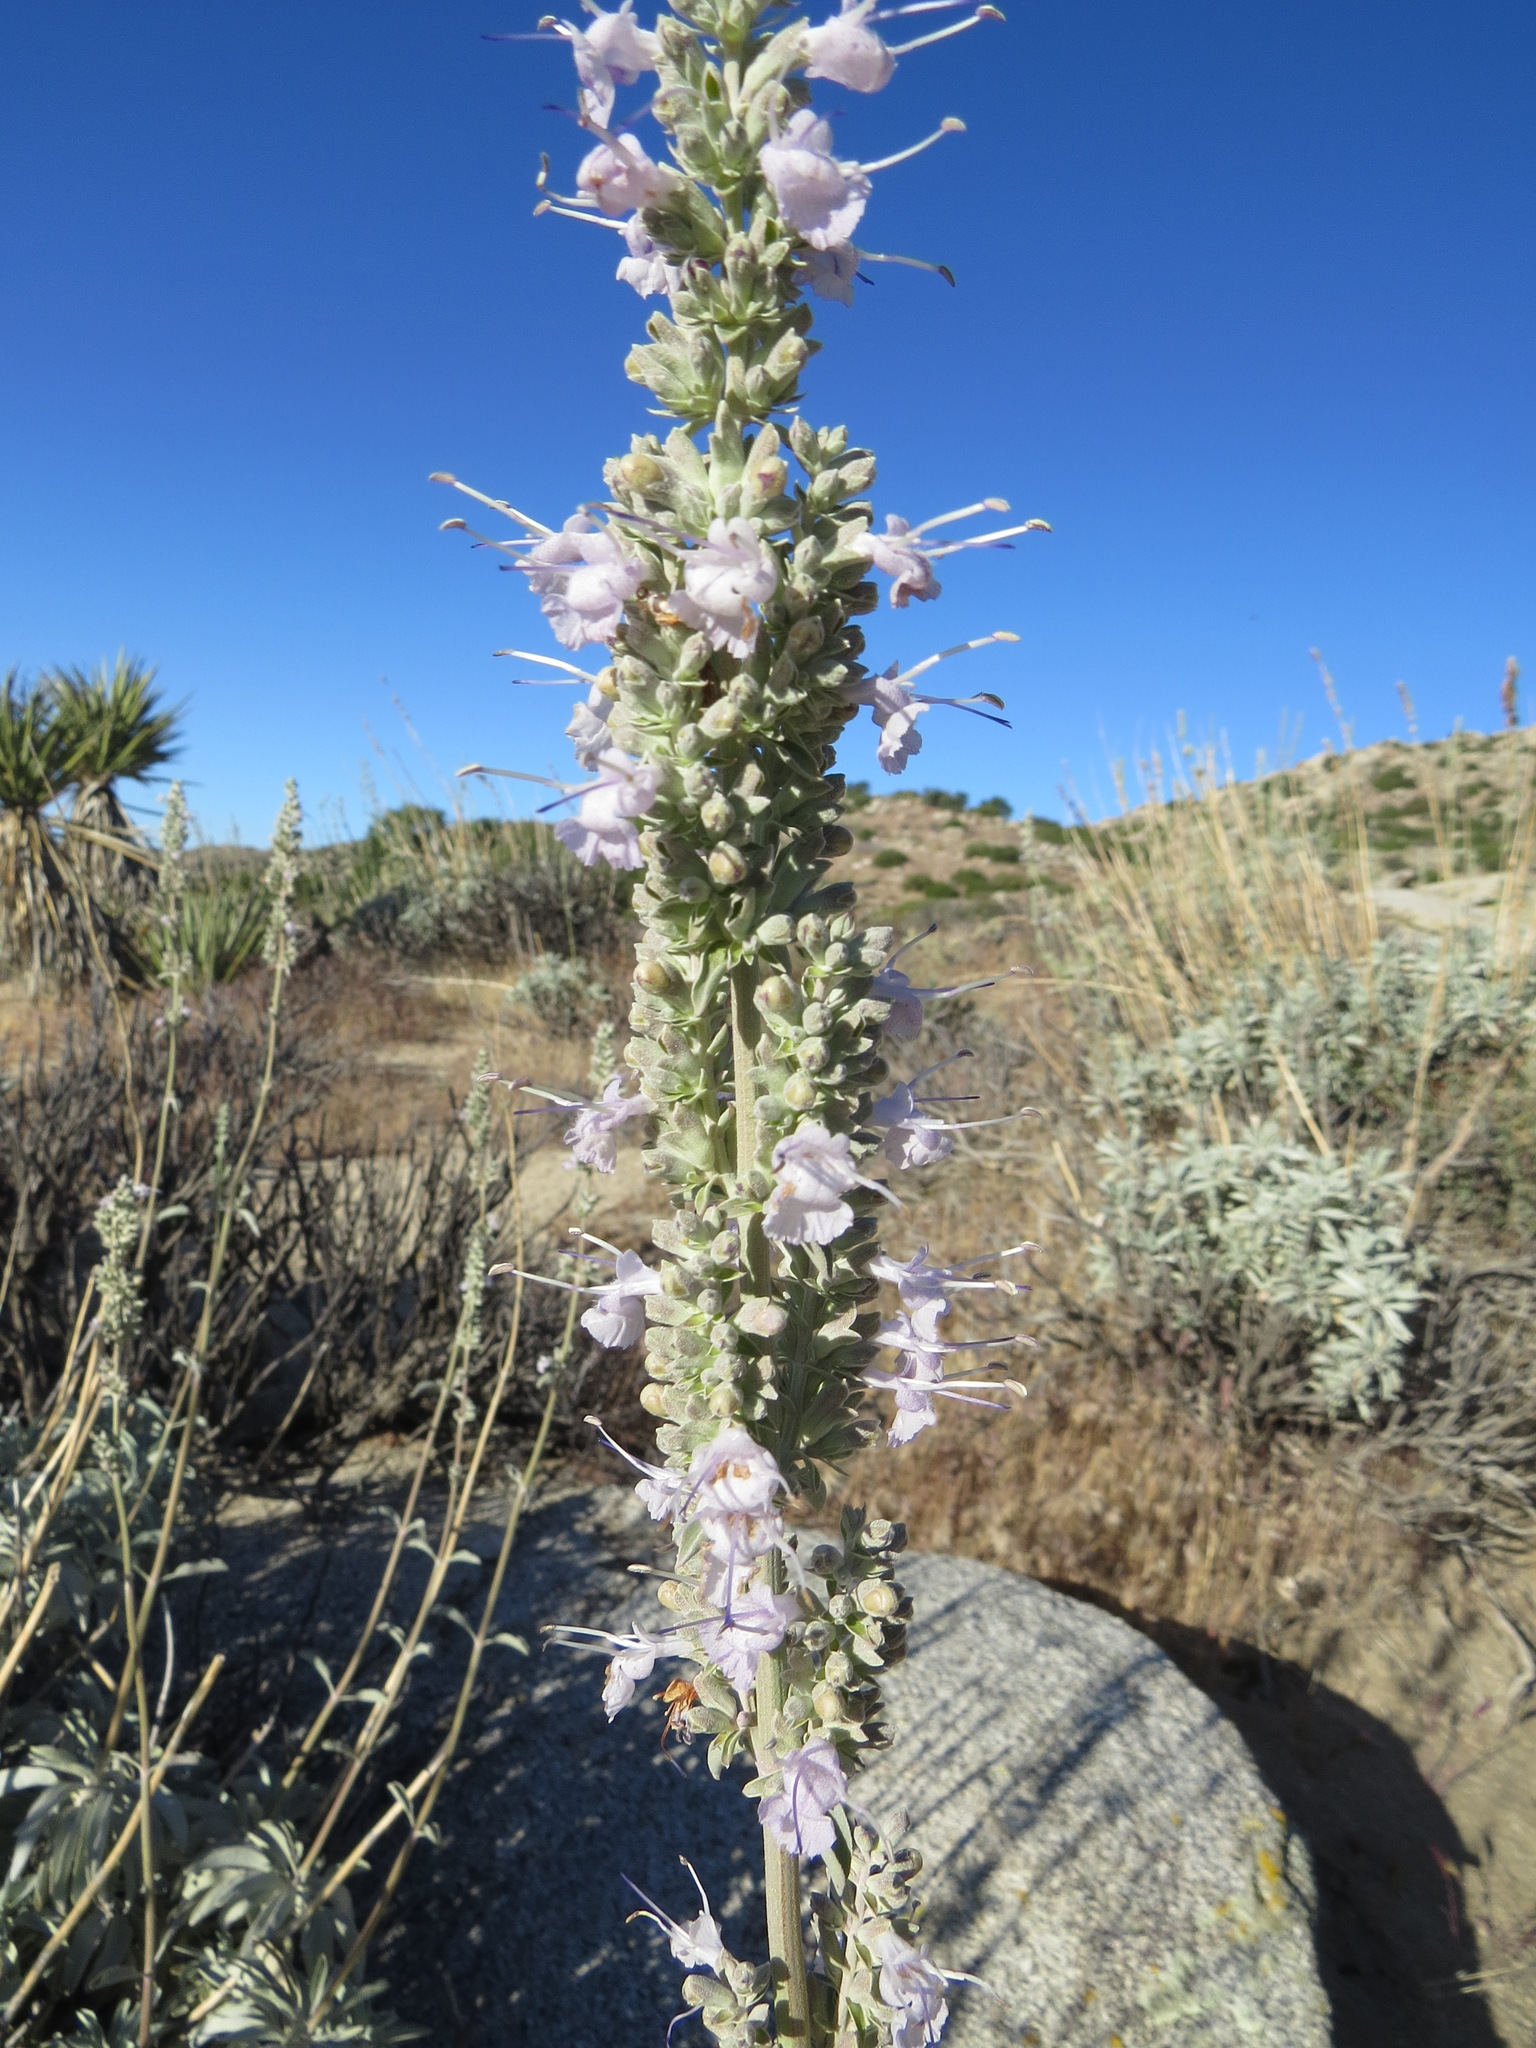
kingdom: Plantae
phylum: Tracheophyta
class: Magnoliopsida
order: Lamiales
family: Lamiaceae
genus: Salvia
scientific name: Salvia apiana
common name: White sage
